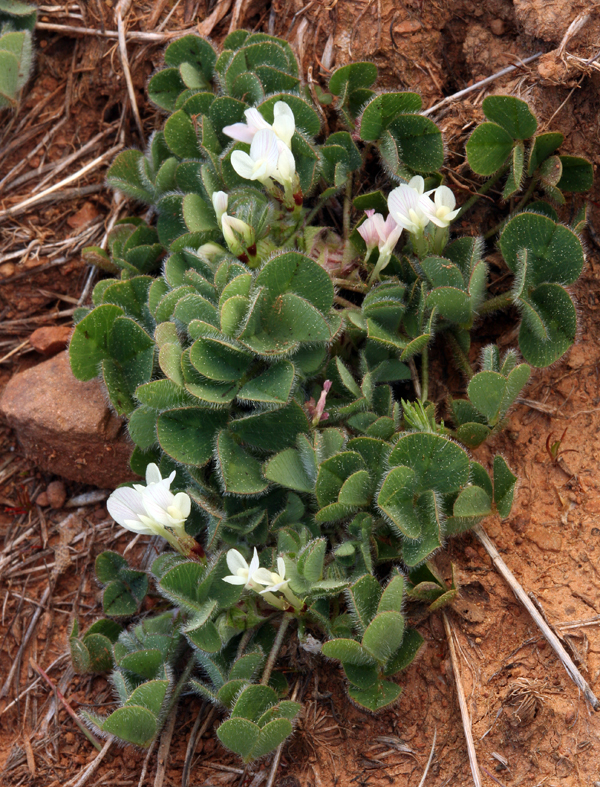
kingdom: Plantae
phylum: Tracheophyta
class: Magnoliopsida
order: Fabales
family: Fabaceae
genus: Trifolium
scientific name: Trifolium subterraneum
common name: Subterranean clover
